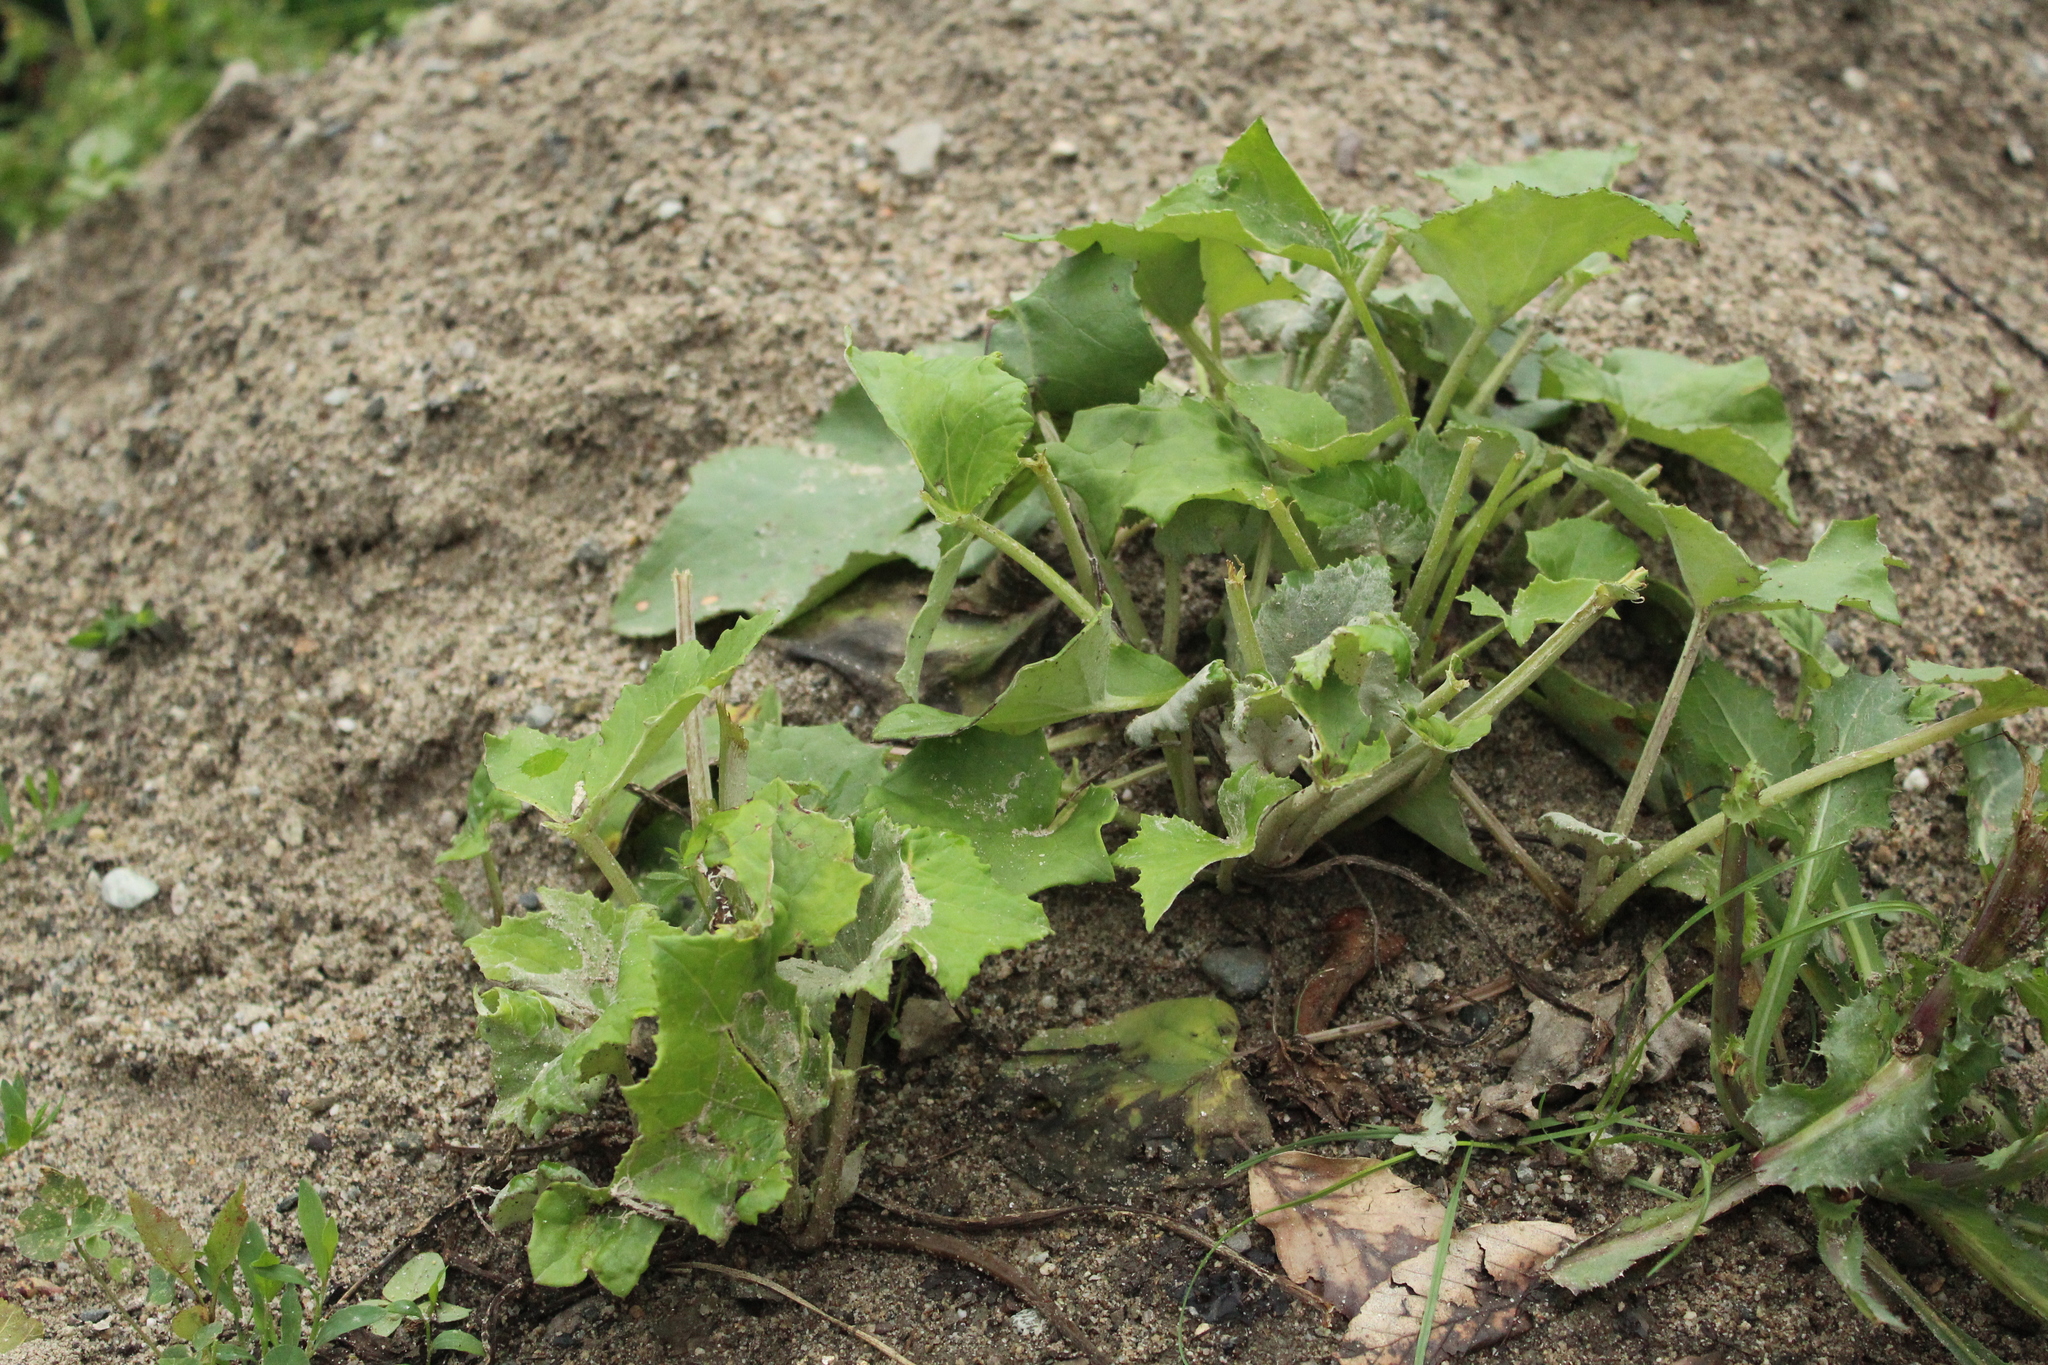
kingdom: Plantae
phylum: Tracheophyta
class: Magnoliopsida
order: Asterales
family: Asteraceae
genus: Tussilago
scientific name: Tussilago farfara
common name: Coltsfoot
